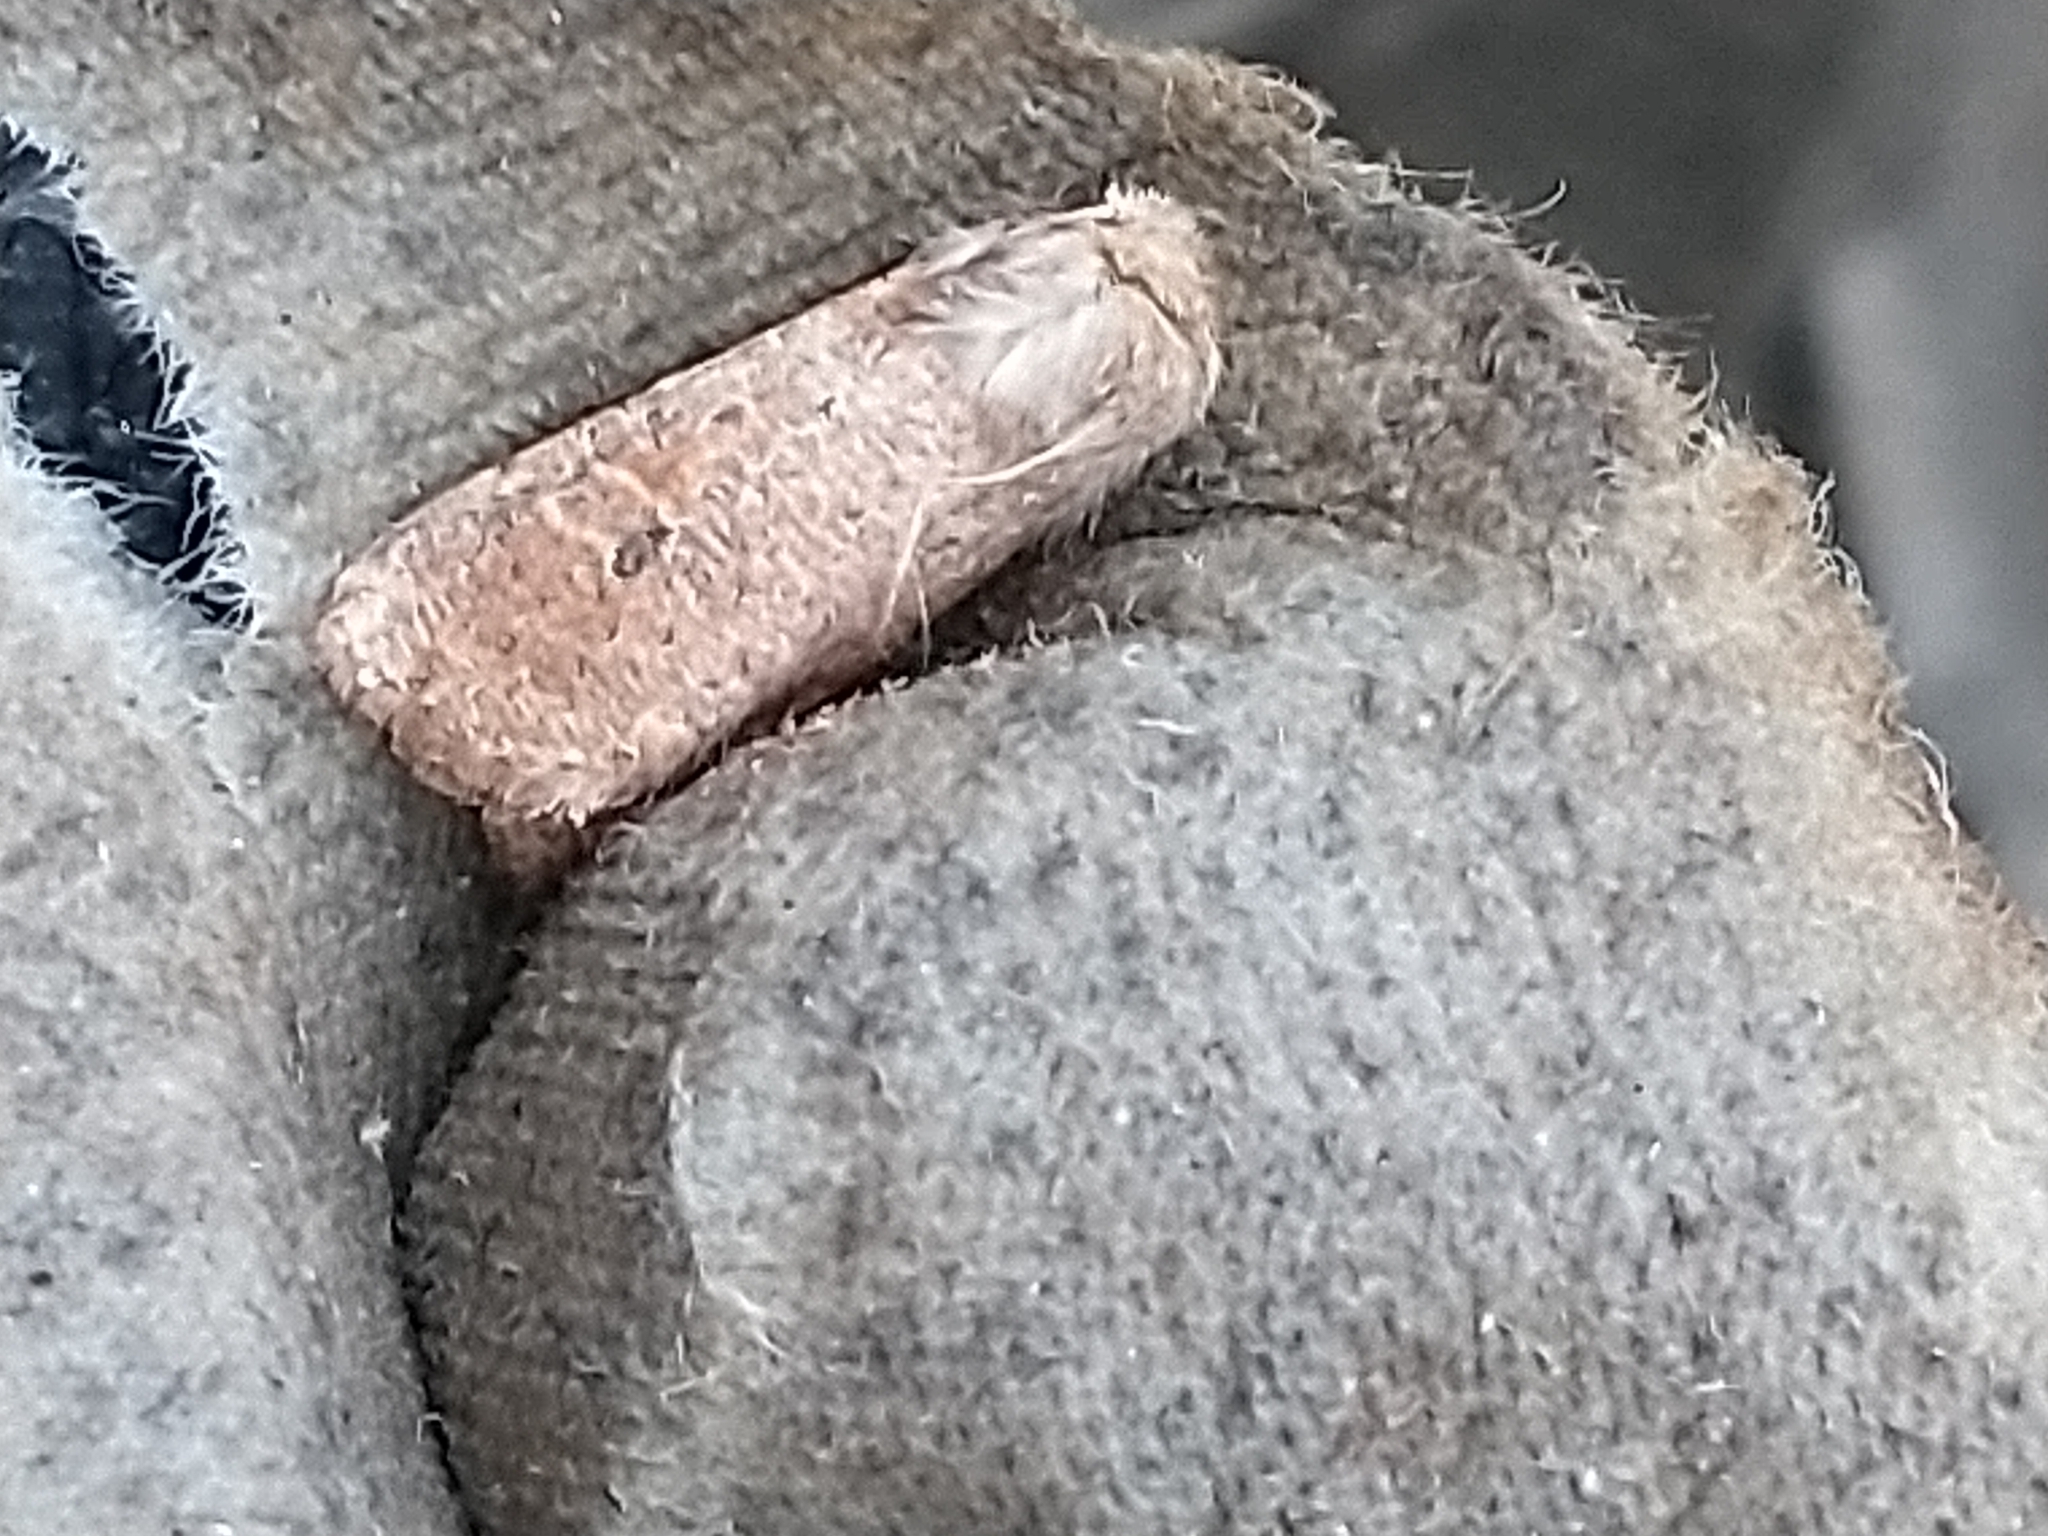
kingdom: Animalia
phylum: Arthropoda
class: Insecta
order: Lepidoptera
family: Noctuidae
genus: Orthosia
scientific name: Orthosia cruda
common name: Small quaker
